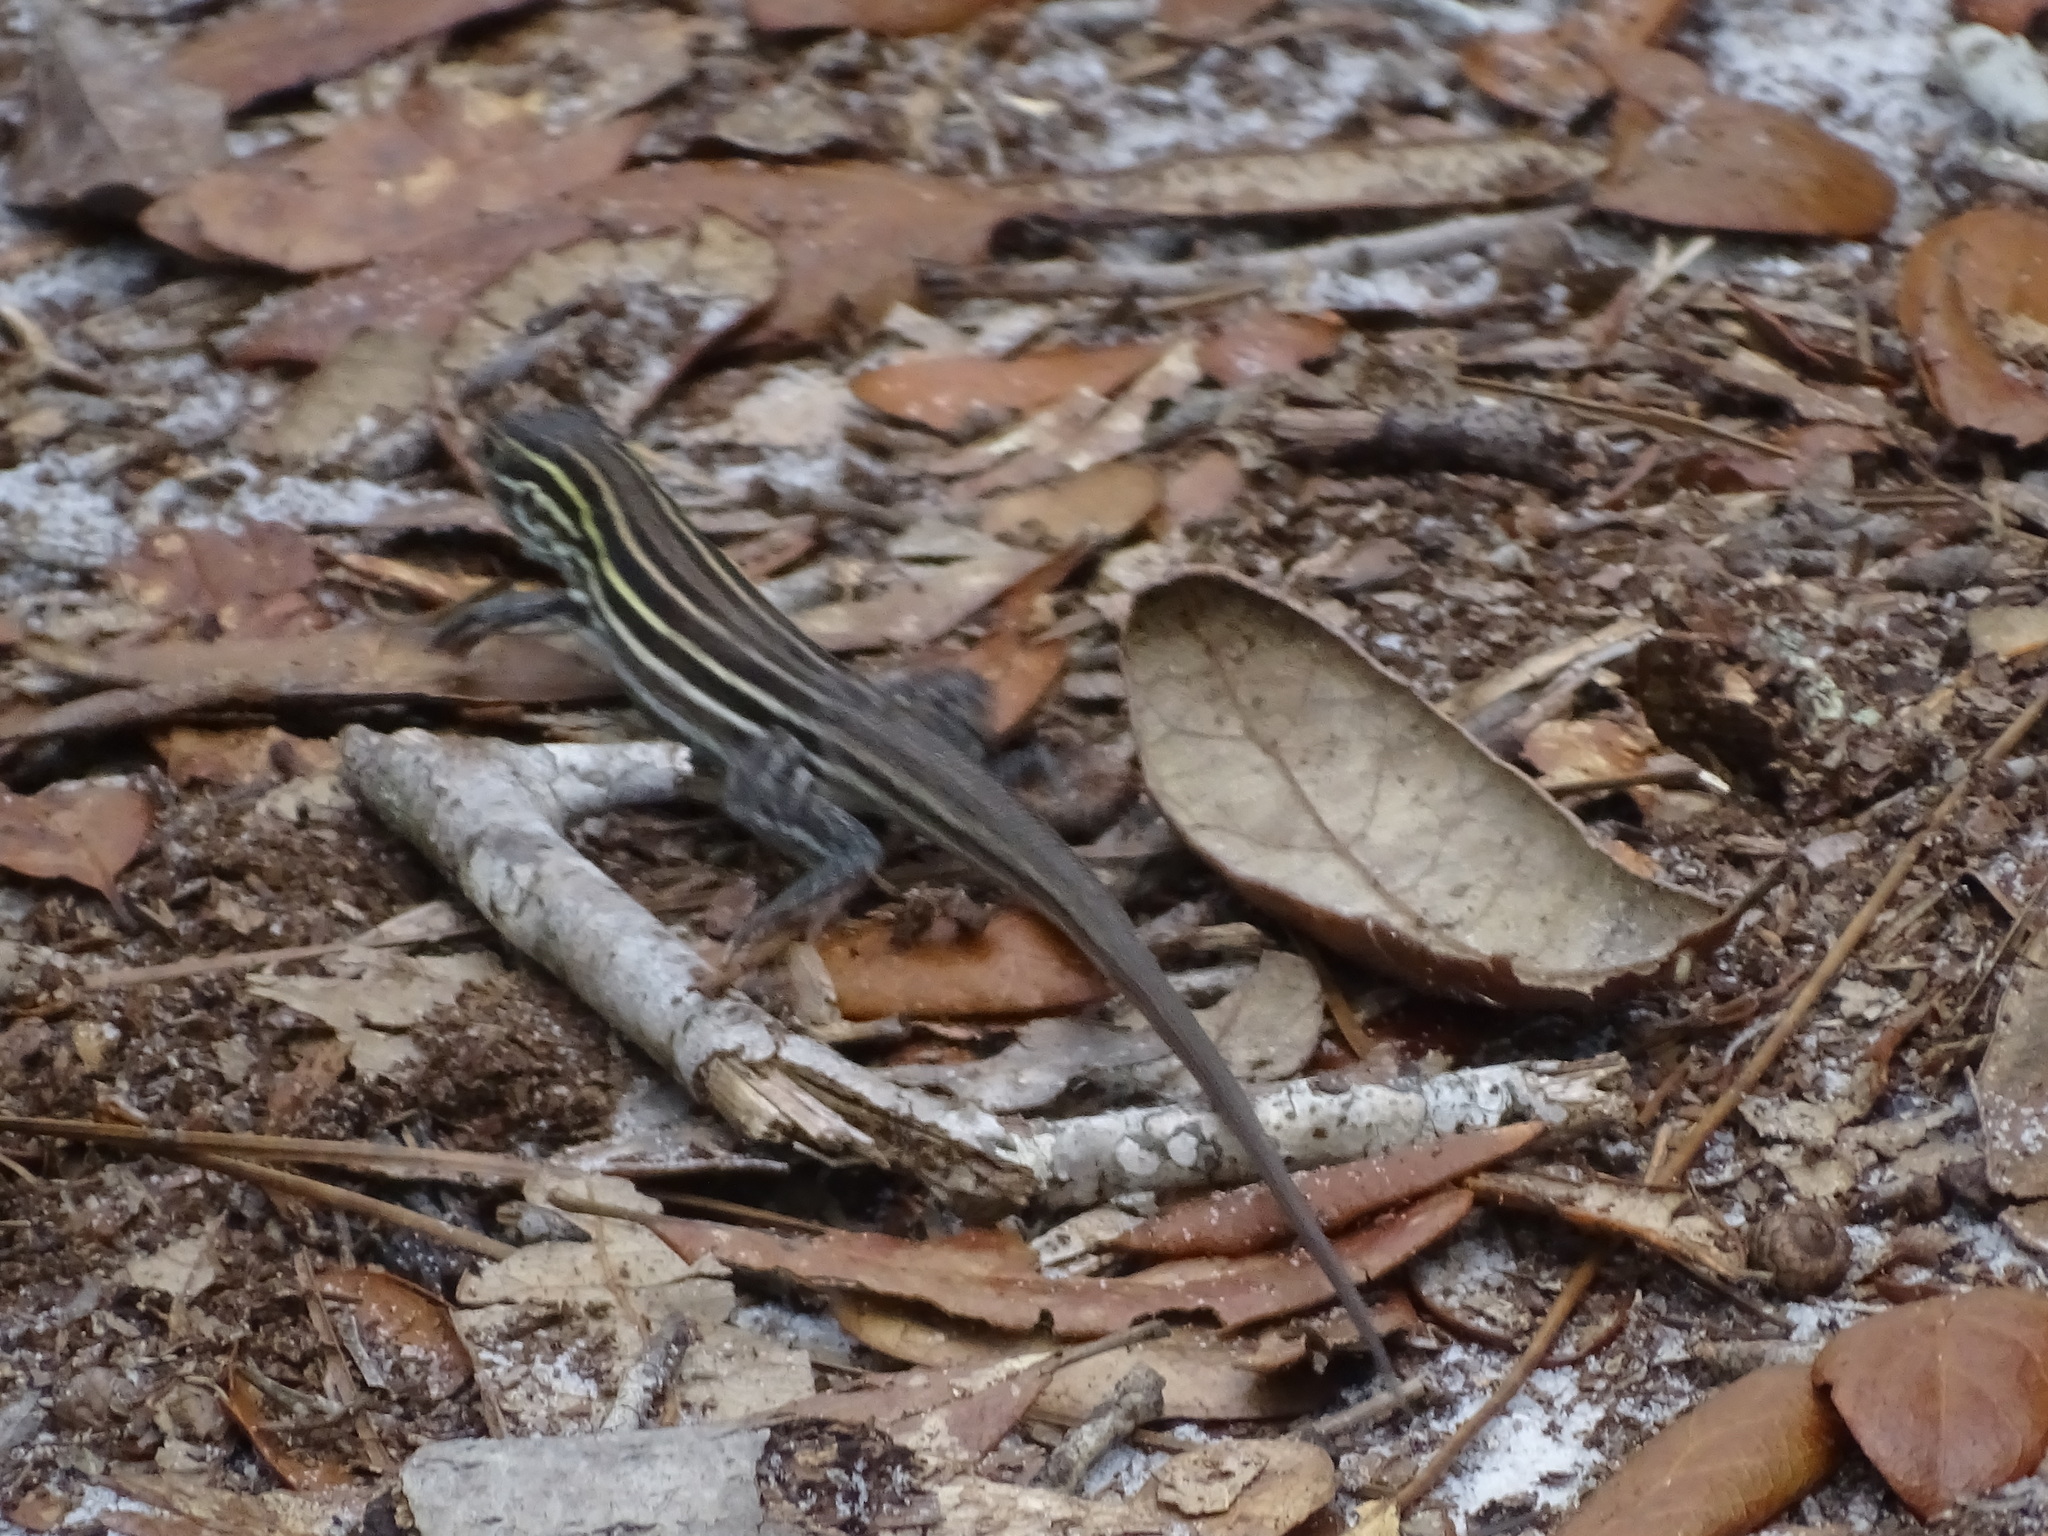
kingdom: Animalia
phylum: Chordata
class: Squamata
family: Teiidae
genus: Aspidoscelis
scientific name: Aspidoscelis sexlineatus
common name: Six-lined racerunner
